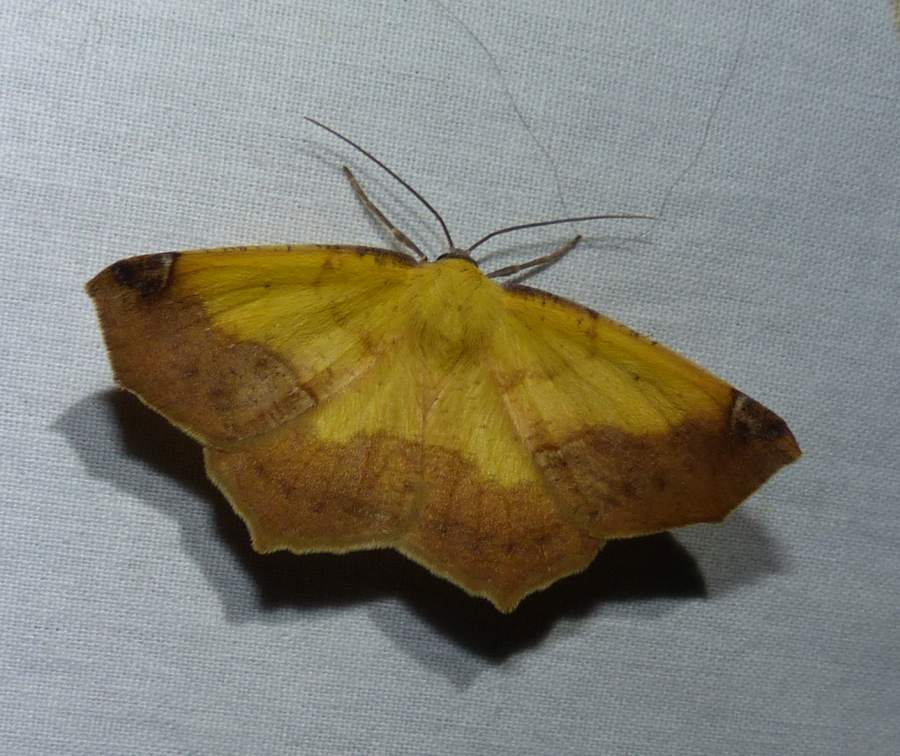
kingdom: Animalia
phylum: Arthropoda
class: Insecta
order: Lepidoptera
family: Geometridae
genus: Antepione
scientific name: Antepione thisoaria
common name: Variable antipione
